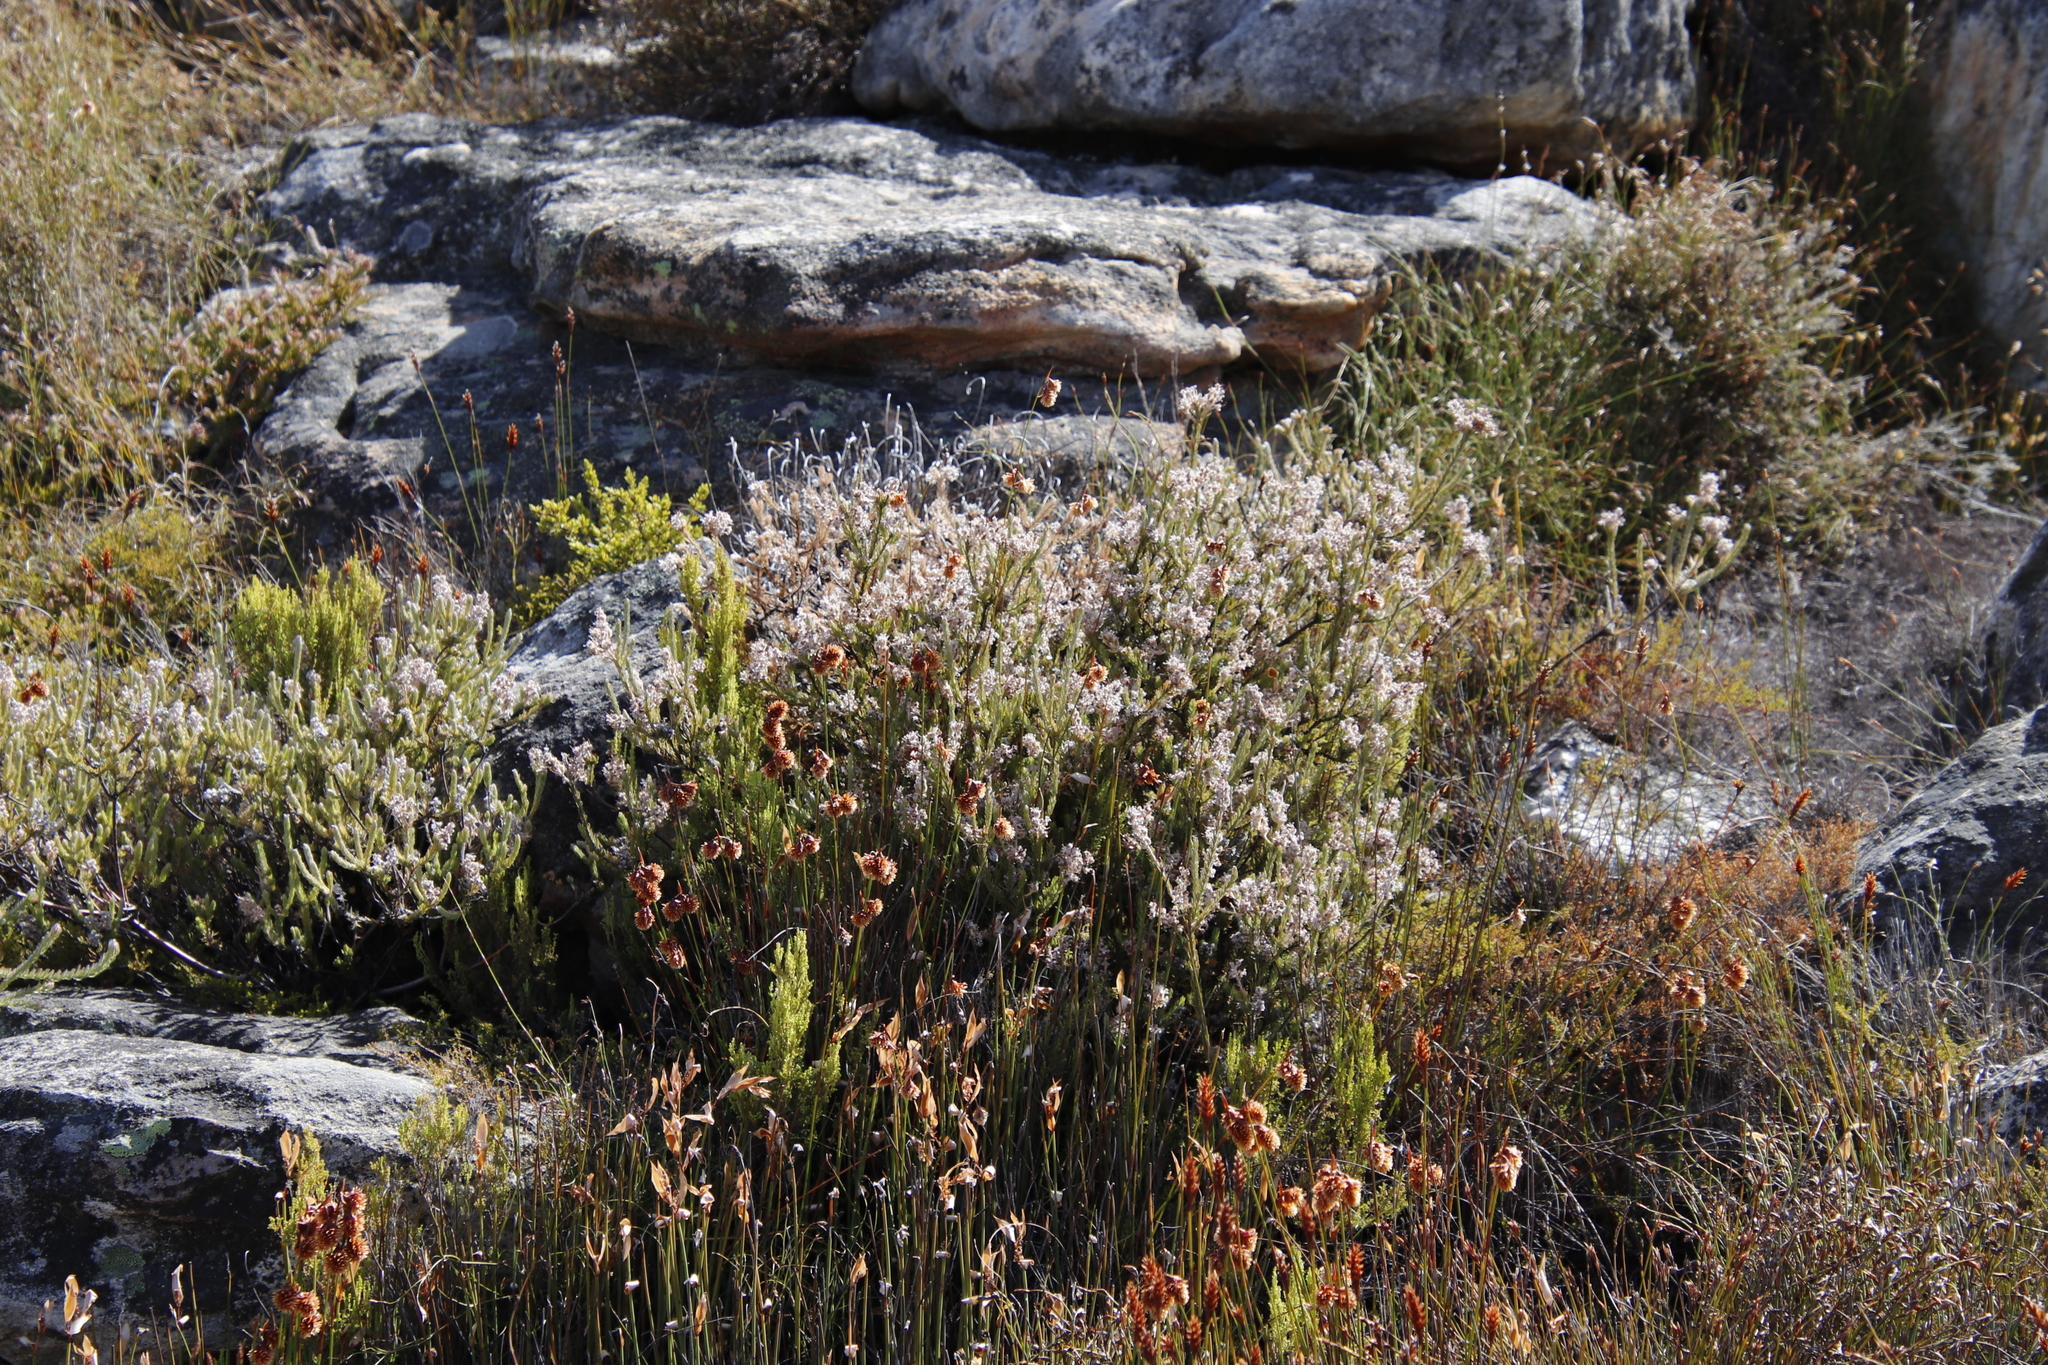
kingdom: Plantae
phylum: Tracheophyta
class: Magnoliopsida
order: Proteales
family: Proteaceae
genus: Spatalla
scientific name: Spatalla incurva
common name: Swan-head spoon
